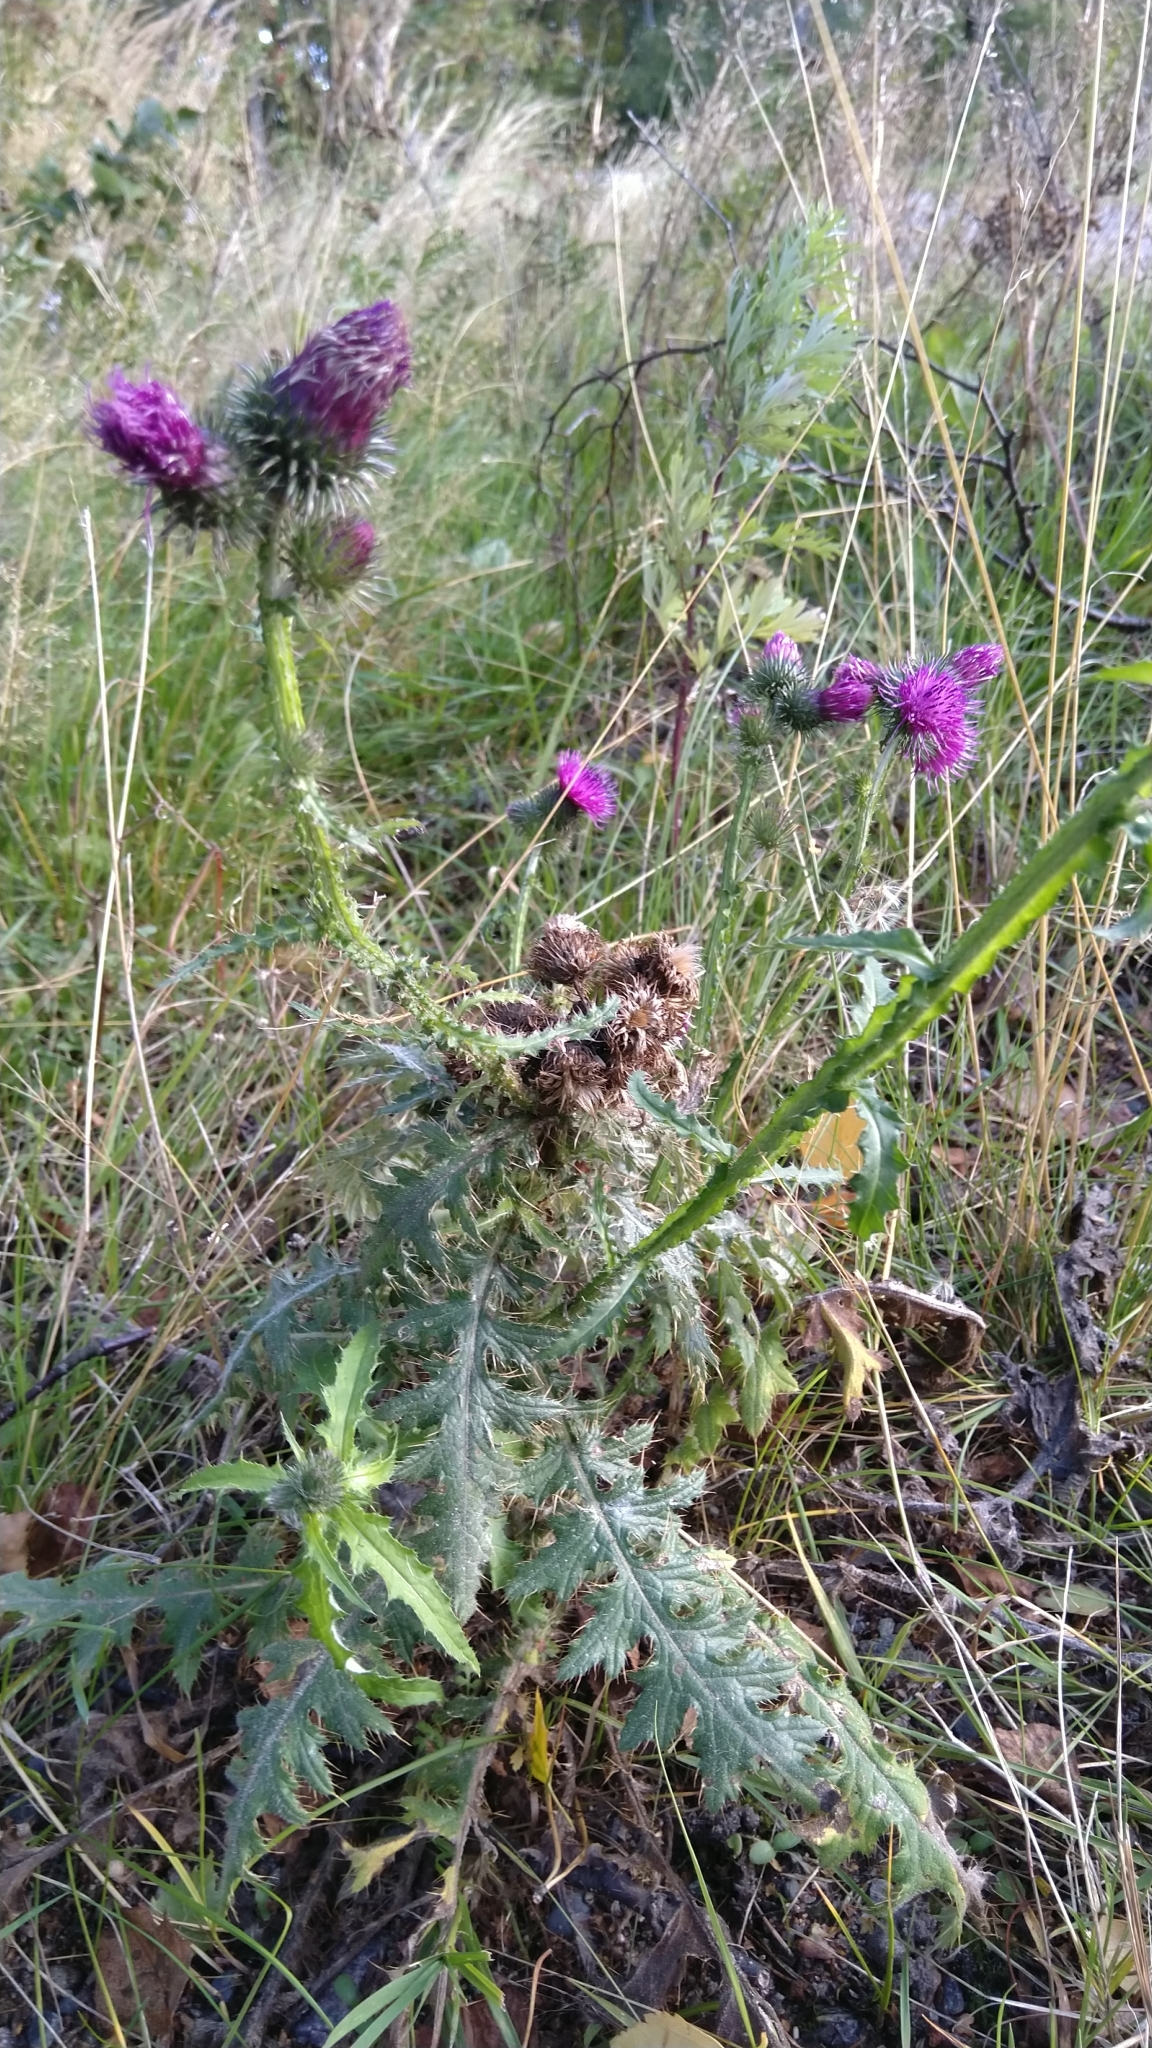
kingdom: Plantae
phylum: Tracheophyta
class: Magnoliopsida
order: Asterales
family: Asteraceae
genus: Carduus
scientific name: Carduus crispus
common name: Welted thistle
